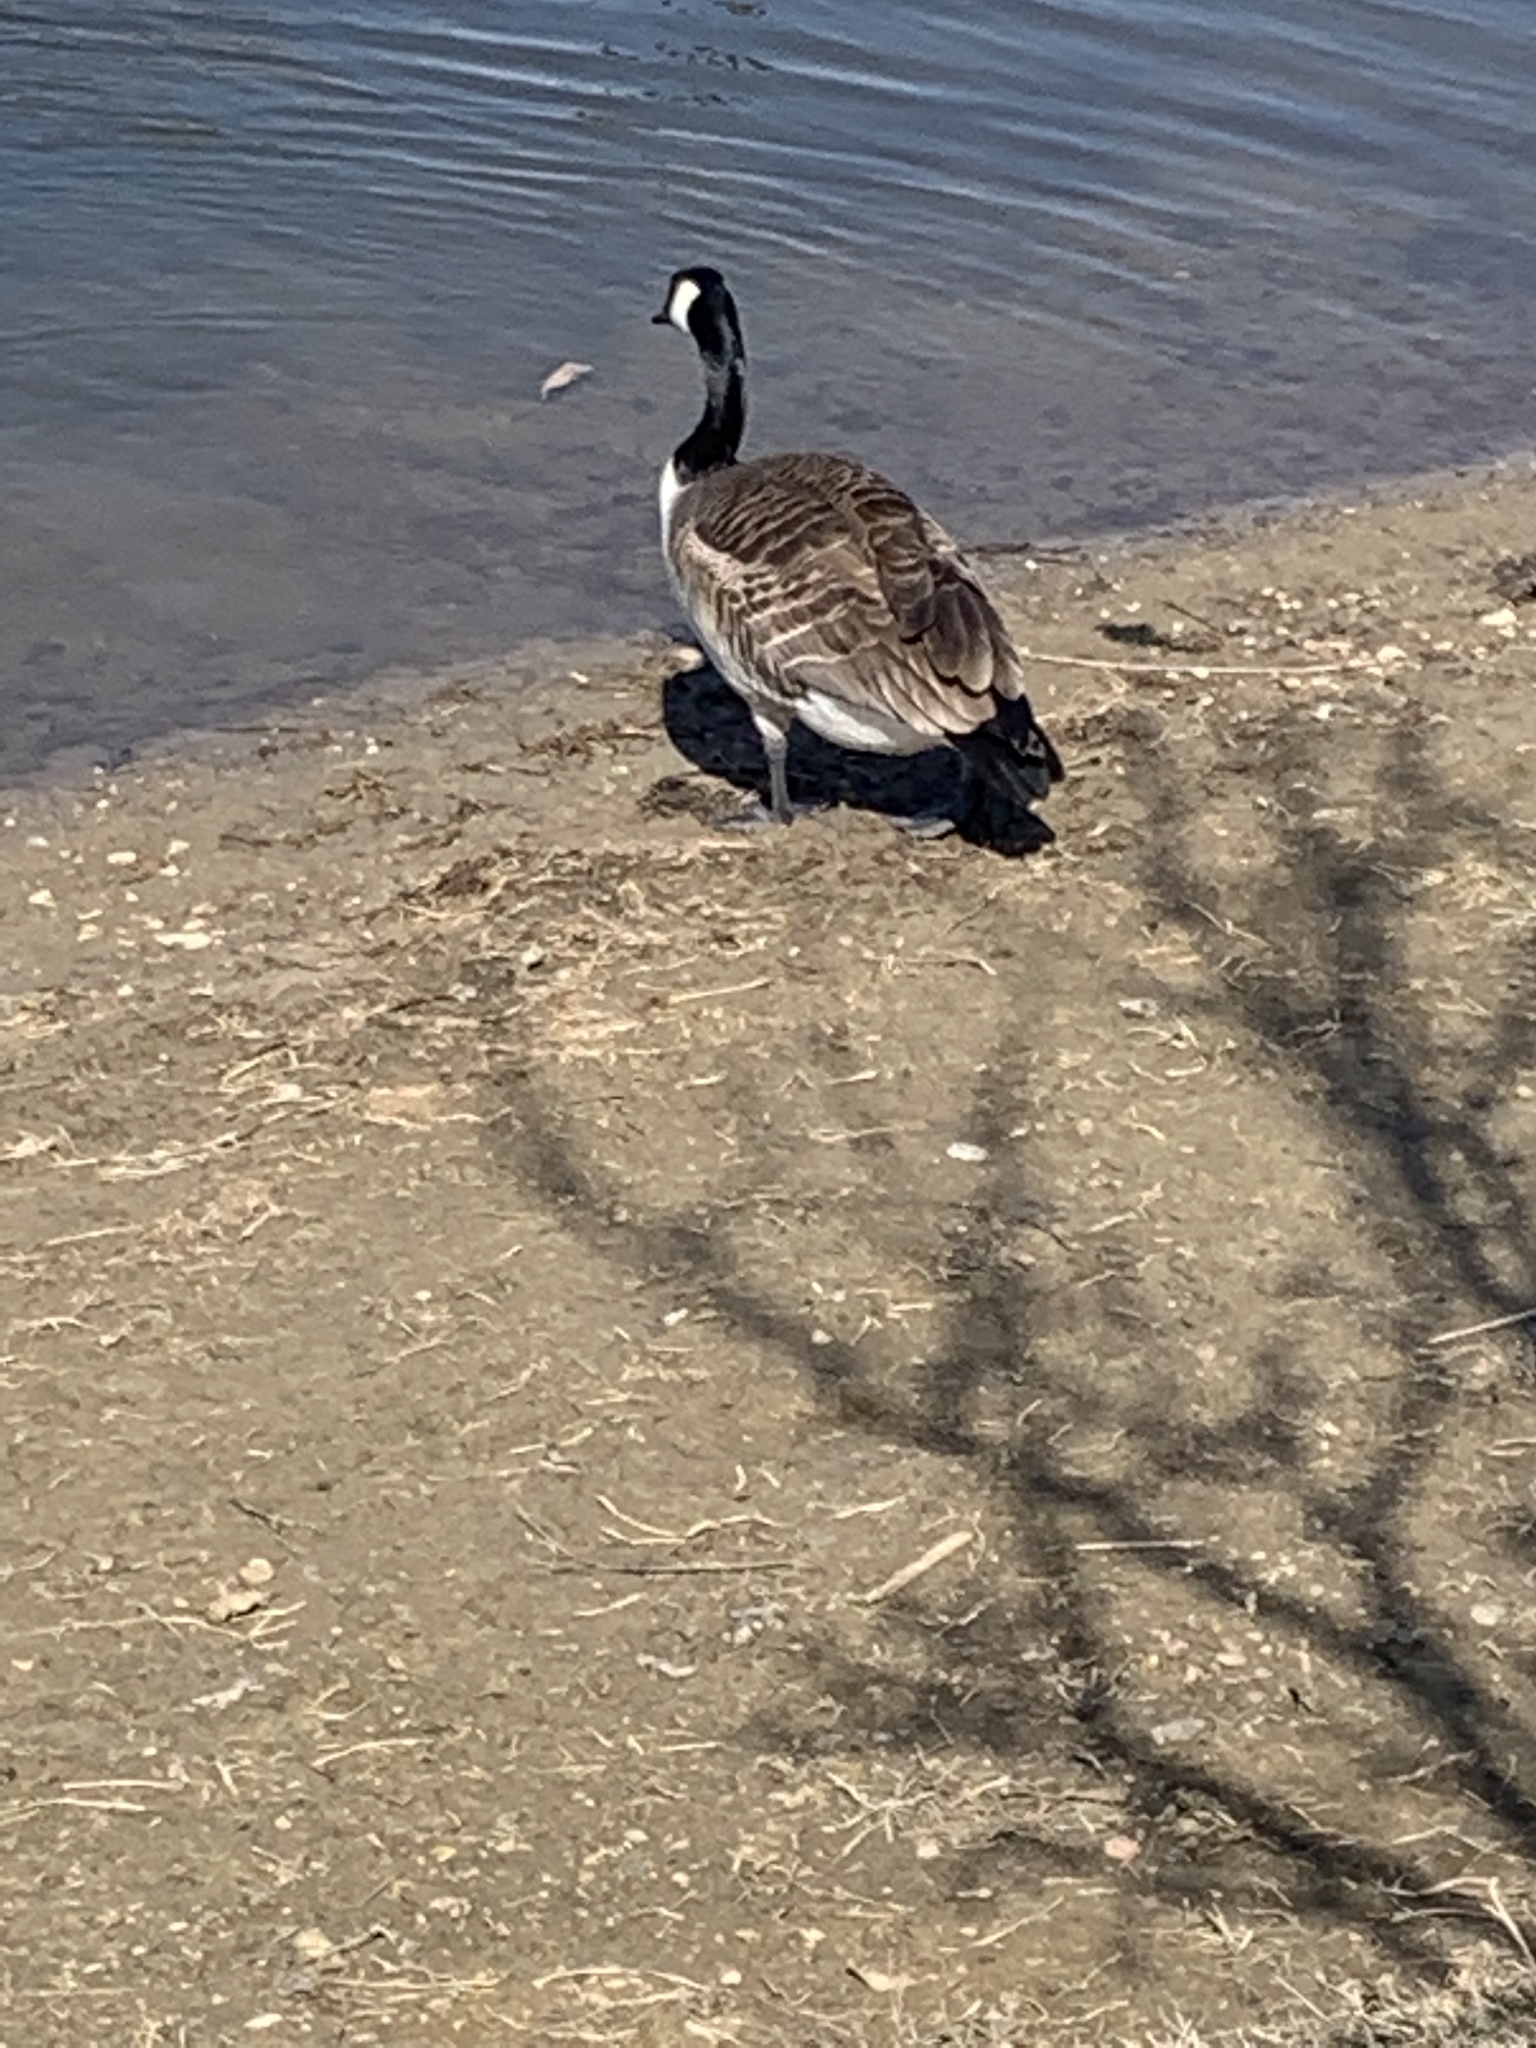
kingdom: Animalia
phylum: Chordata
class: Aves
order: Anseriformes
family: Anatidae
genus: Branta
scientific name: Branta canadensis
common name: Canada goose
